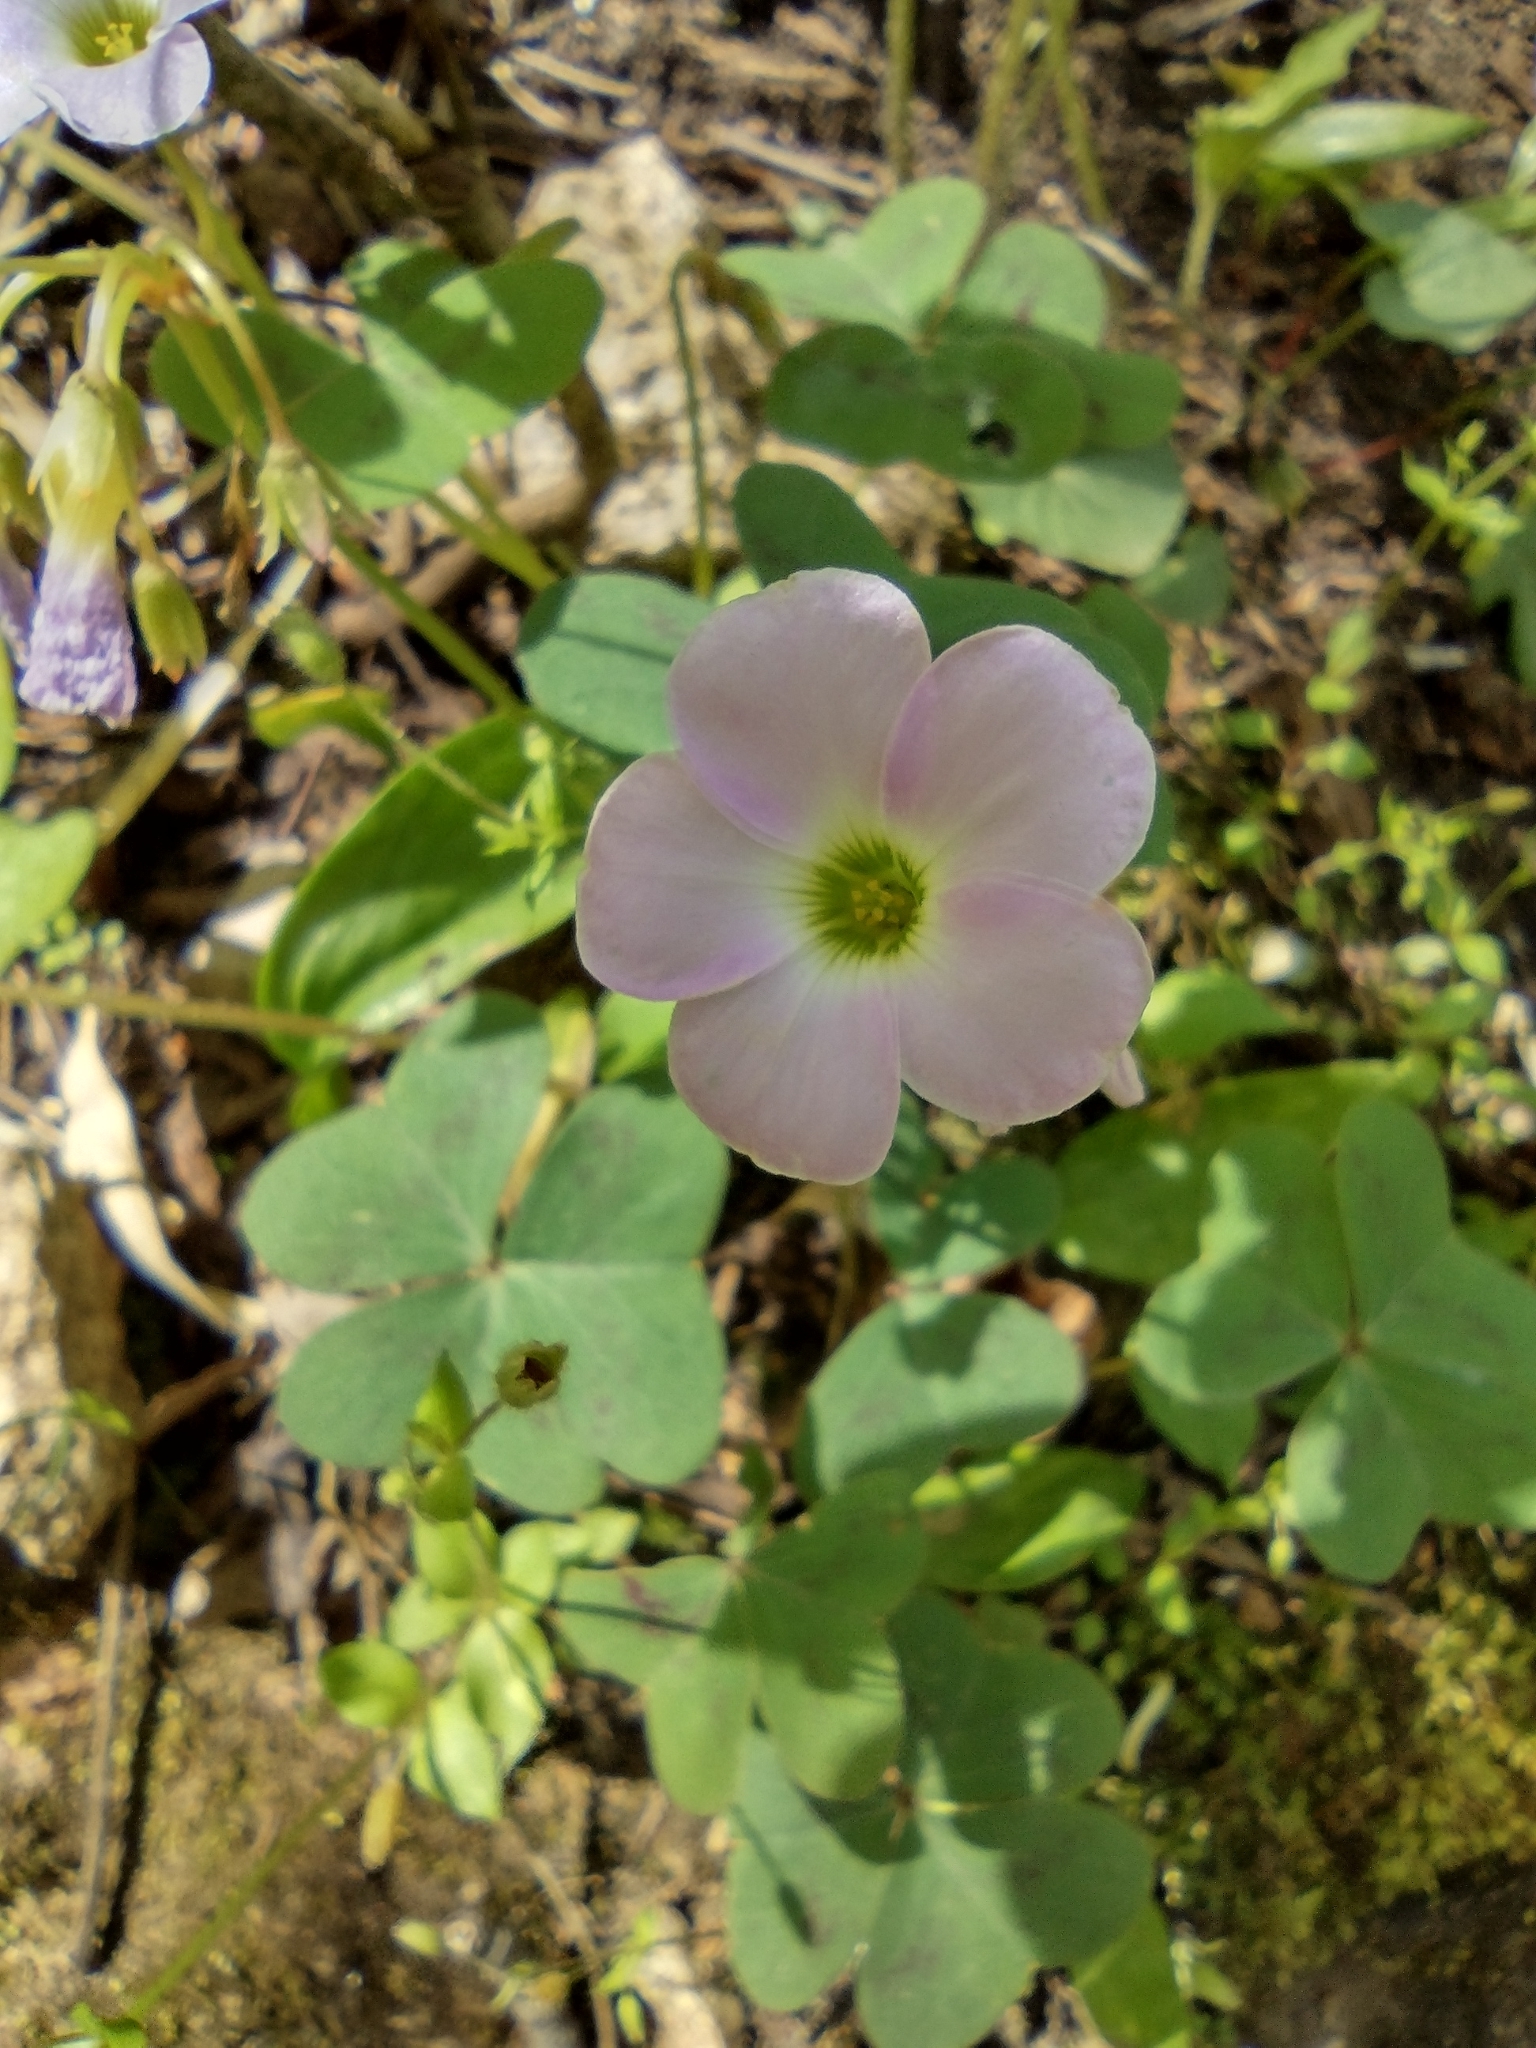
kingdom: Plantae
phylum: Tracheophyta
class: Magnoliopsida
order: Oxalidales
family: Oxalidaceae
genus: Oxalis
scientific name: Oxalis violacea
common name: Violet wood-sorrel
